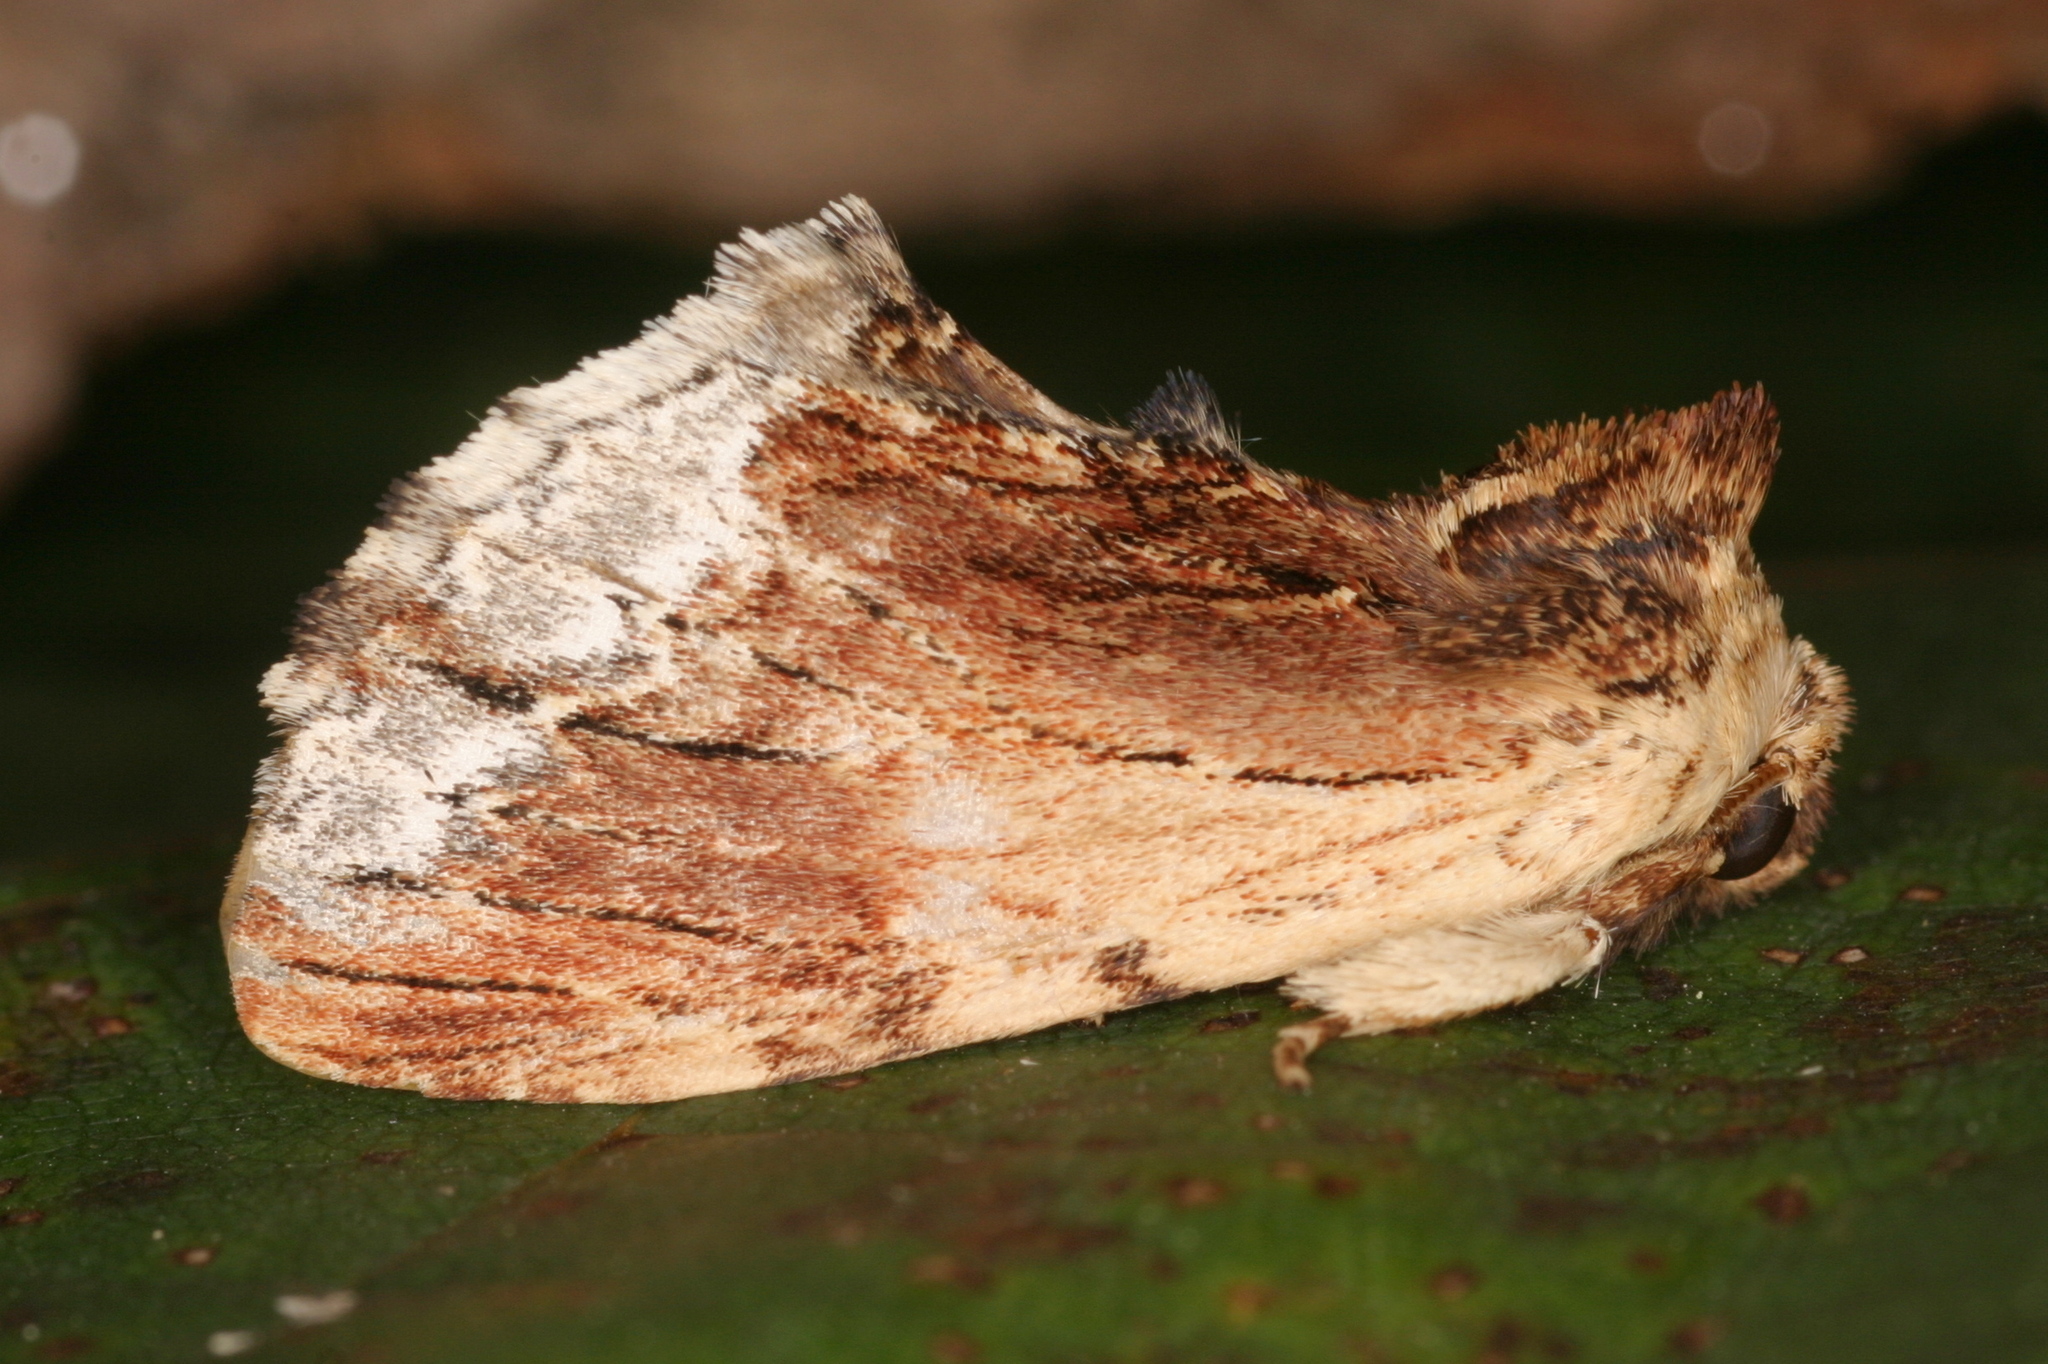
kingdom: Animalia
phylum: Arthropoda
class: Insecta
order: Lepidoptera
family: Notodontidae
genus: Ptilodon
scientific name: Ptilodon cucullina
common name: Maple prominent
